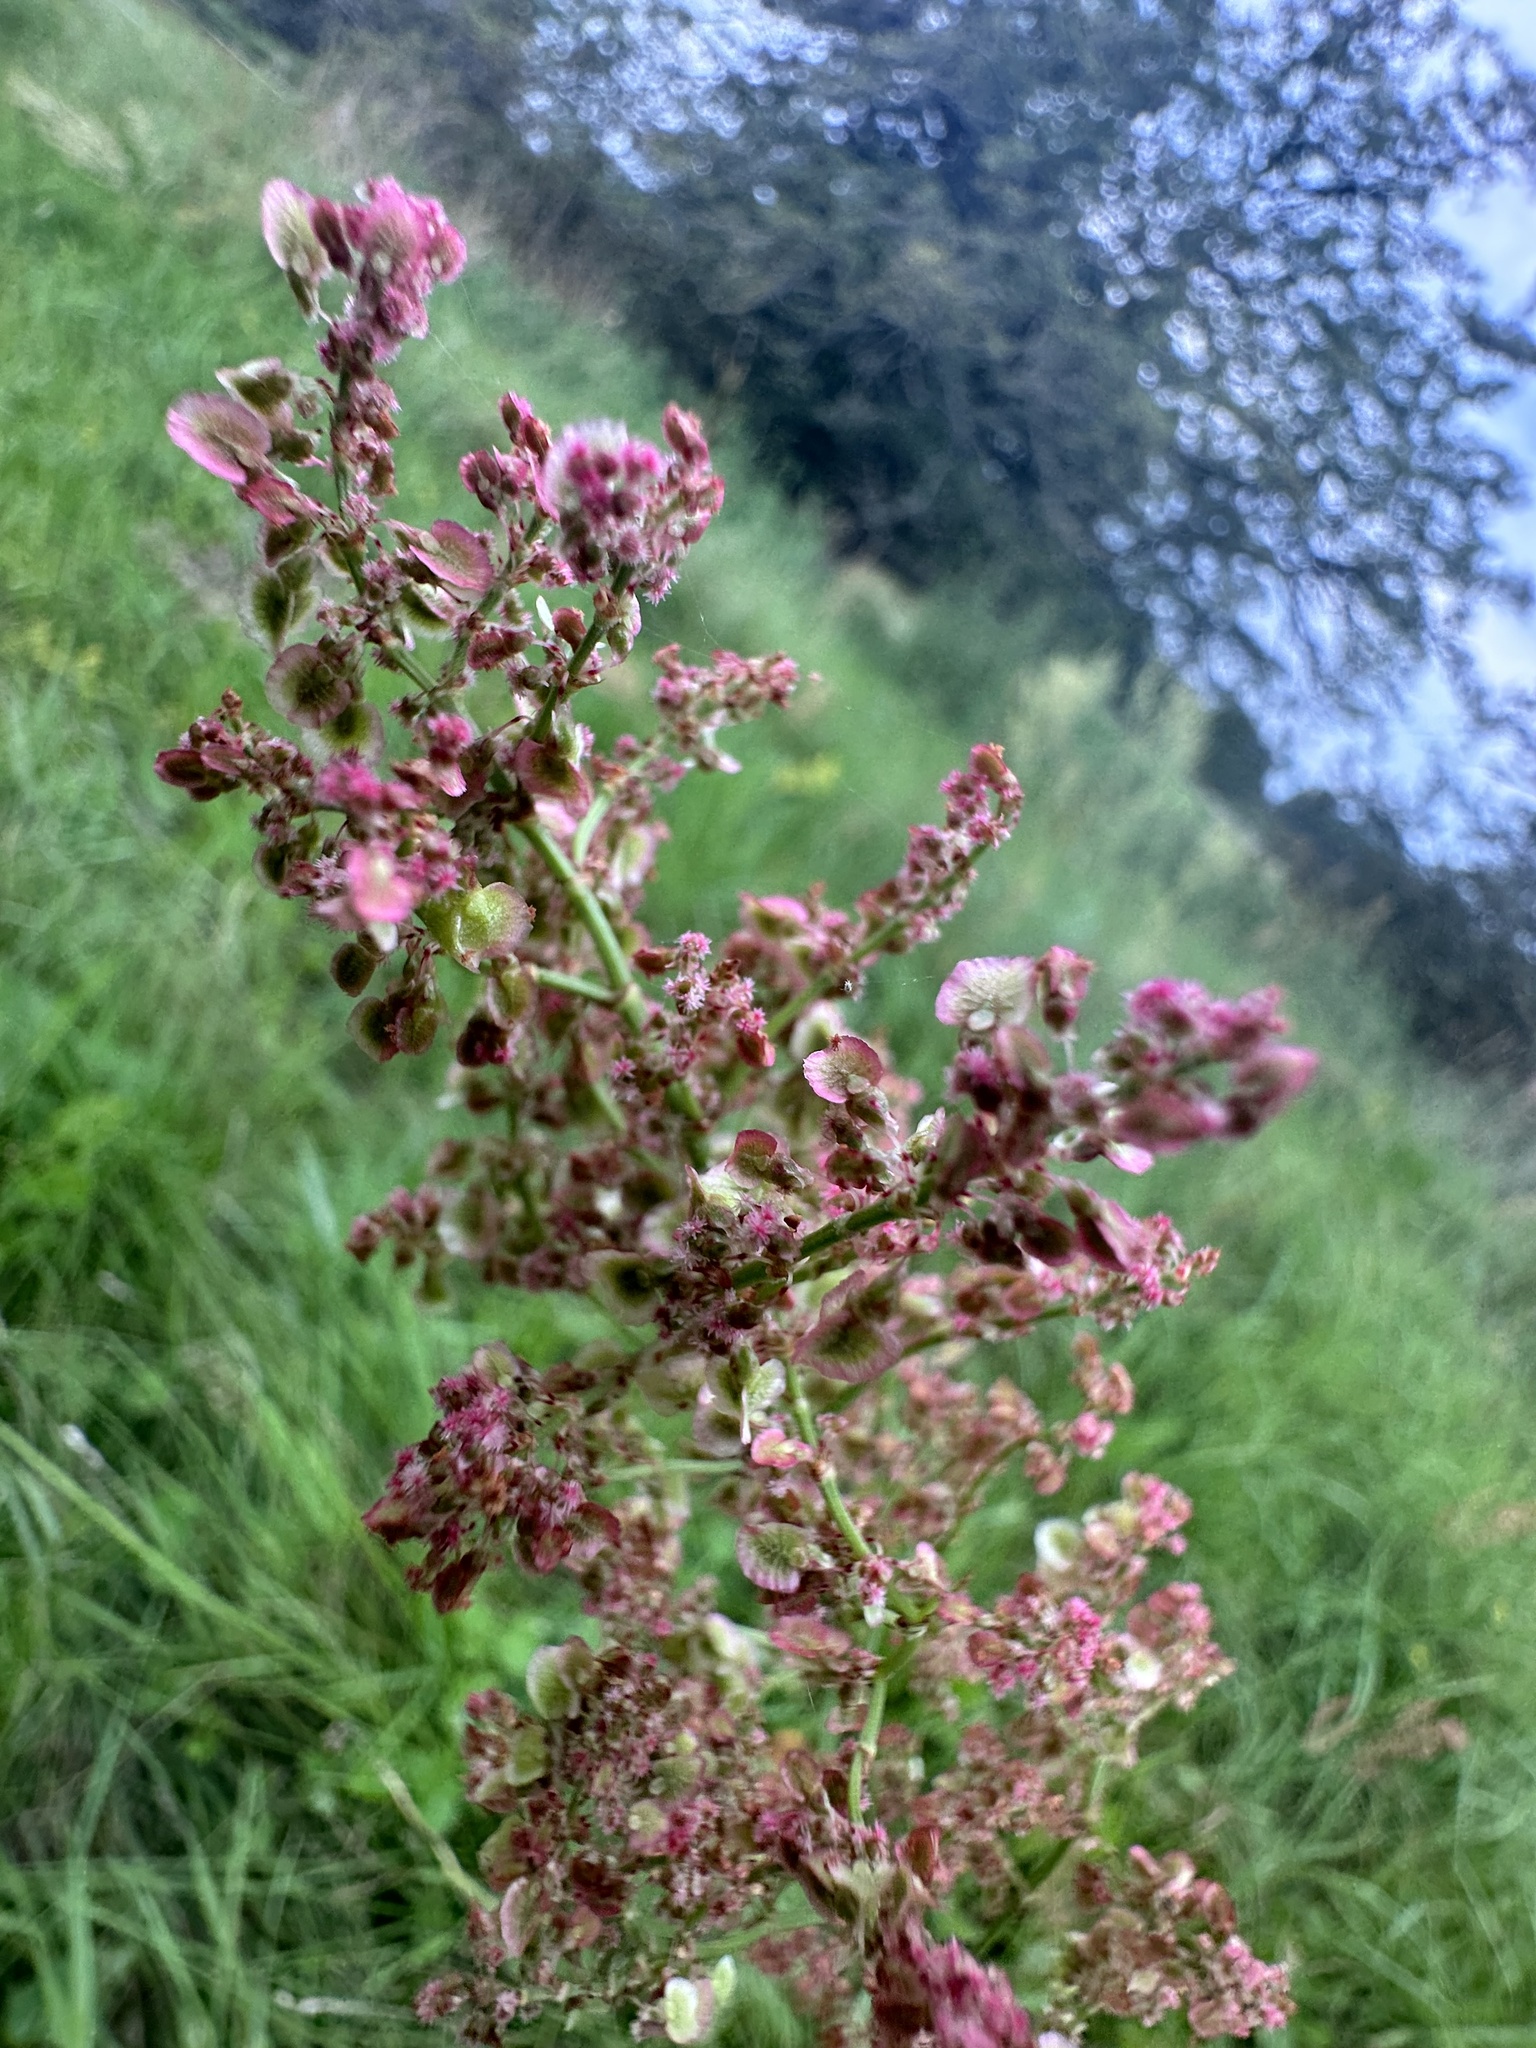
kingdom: Plantae
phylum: Tracheophyta
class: Magnoliopsida
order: Caryophyllales
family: Polygonaceae
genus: Rumex
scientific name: Rumex thyrsiflorus
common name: Garden sorrel
